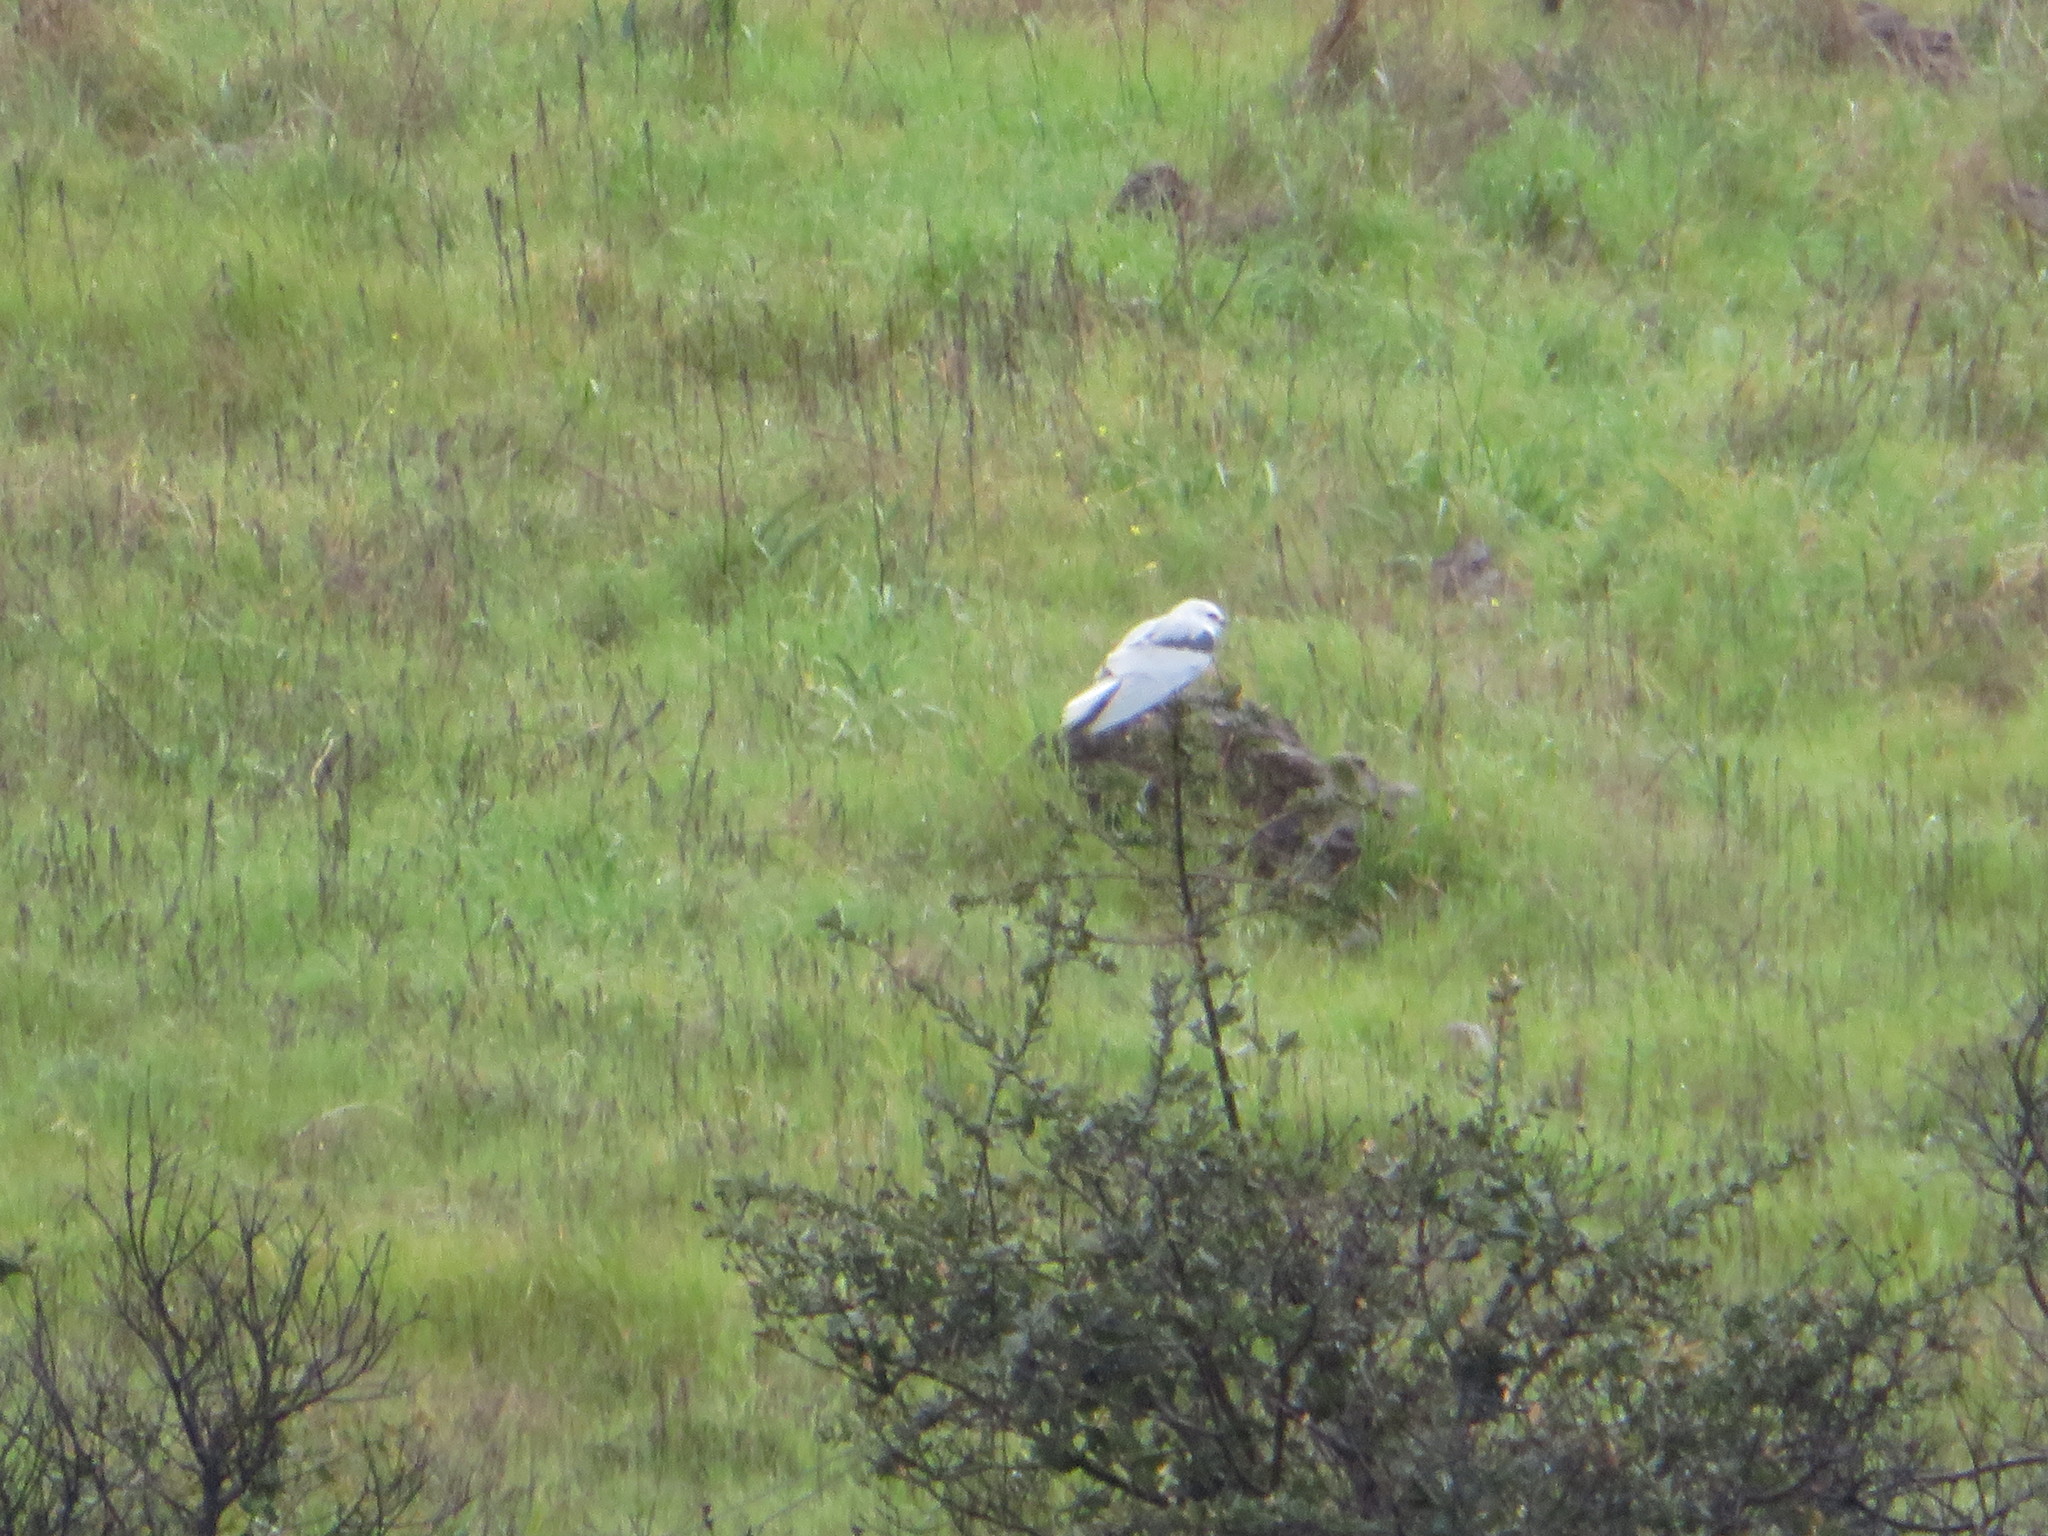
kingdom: Animalia
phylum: Chordata
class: Aves
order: Accipitriformes
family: Accipitridae
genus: Elanus
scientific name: Elanus leucurus
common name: White-tailed kite
